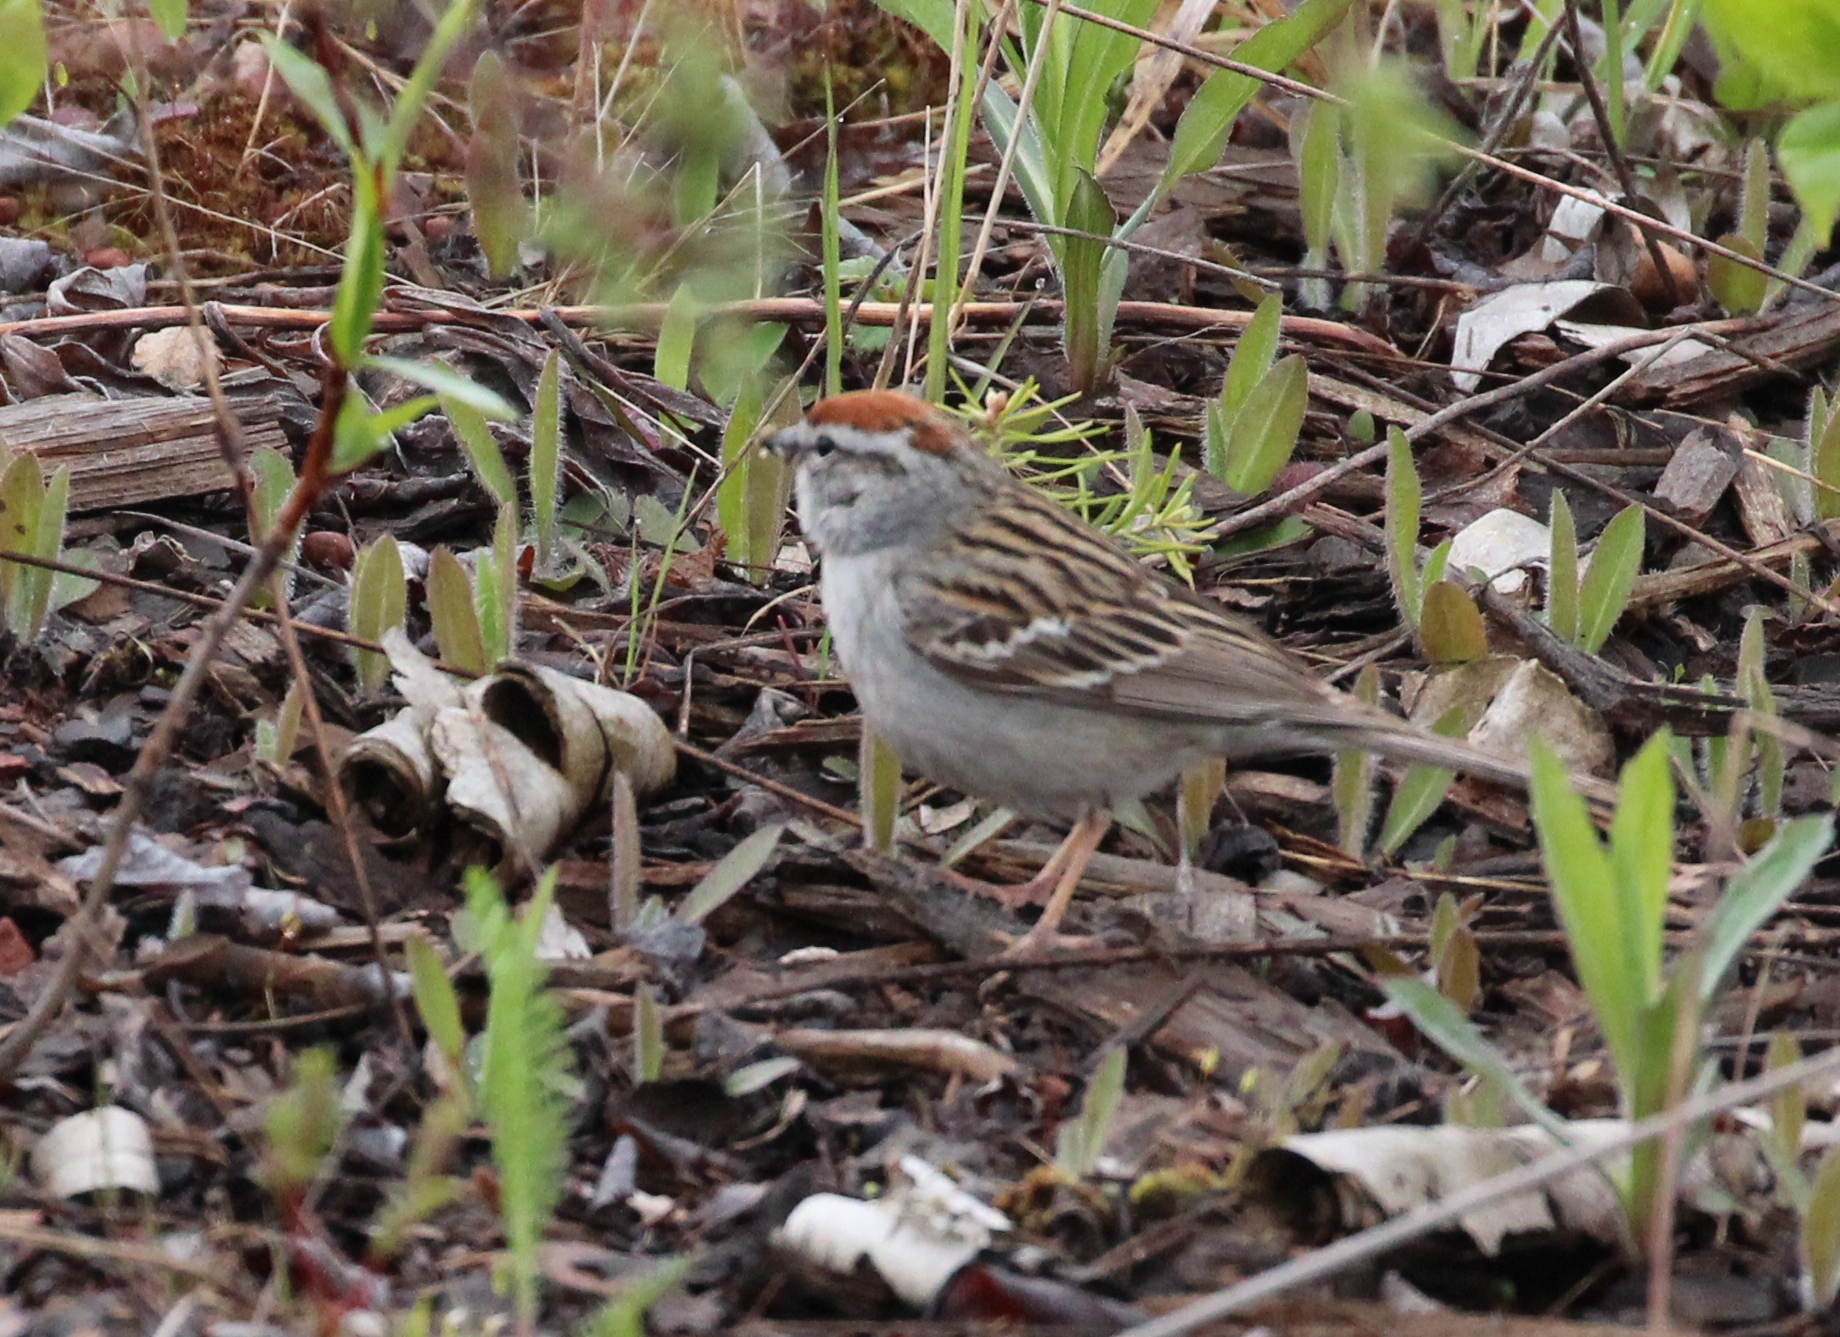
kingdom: Animalia
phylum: Chordata
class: Aves
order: Passeriformes
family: Passerellidae
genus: Spizella
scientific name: Spizella passerina
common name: Chipping sparrow
